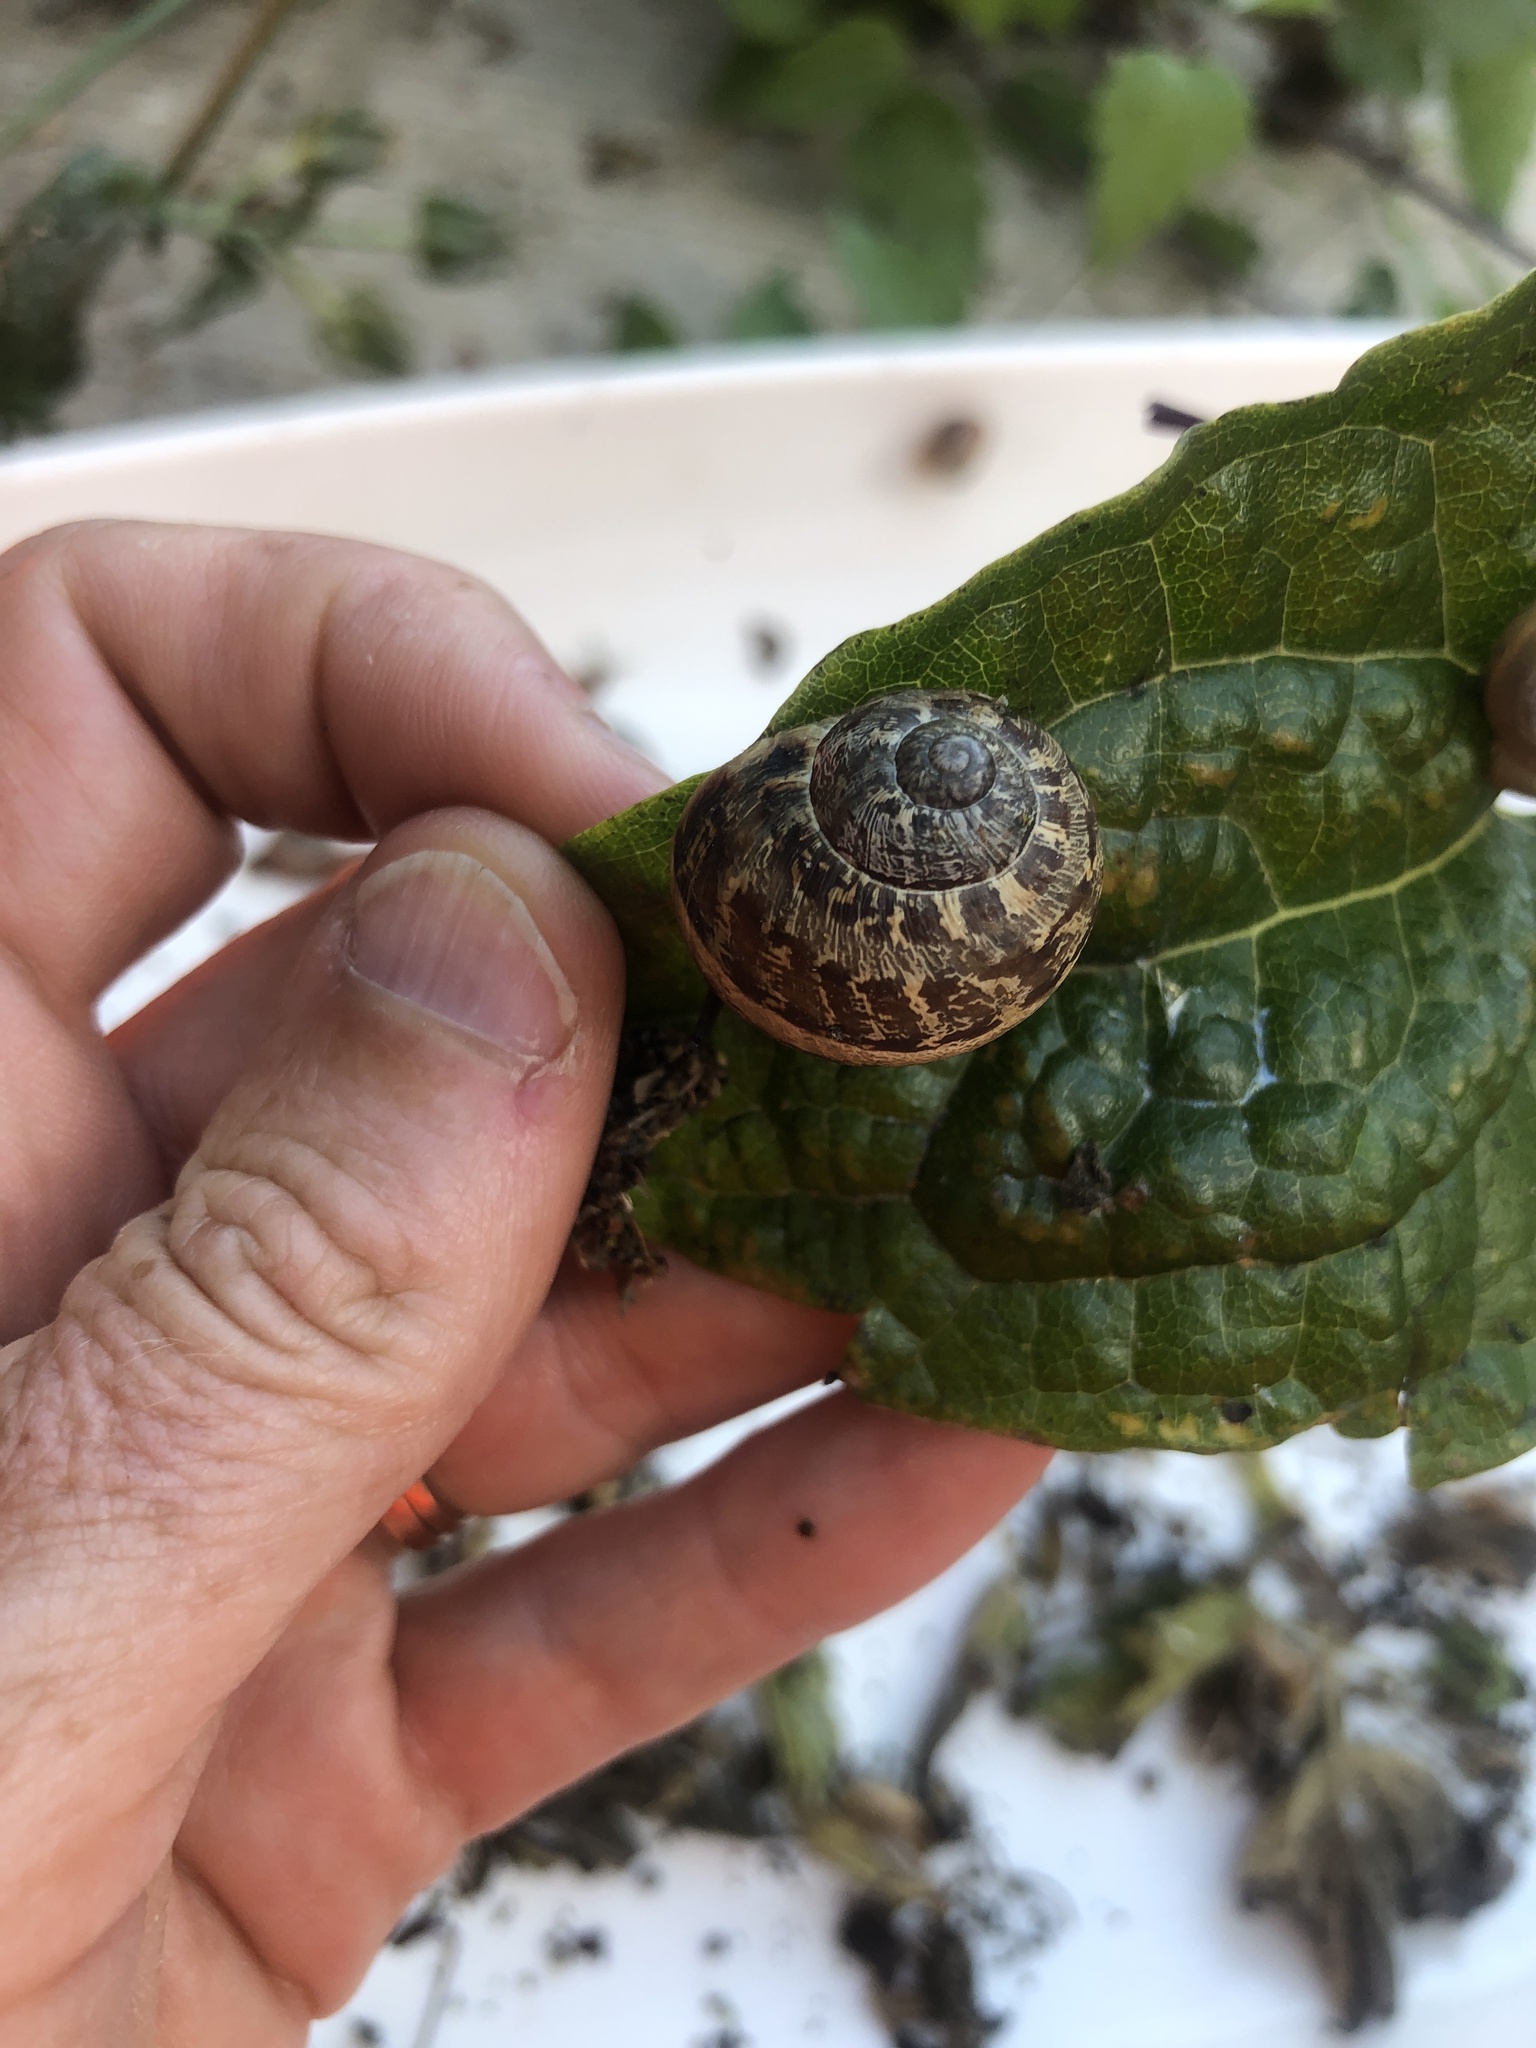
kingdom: Animalia
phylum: Mollusca
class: Gastropoda
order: Stylommatophora
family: Helicidae
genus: Cornu
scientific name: Cornu aspersum
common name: Brown garden snail
